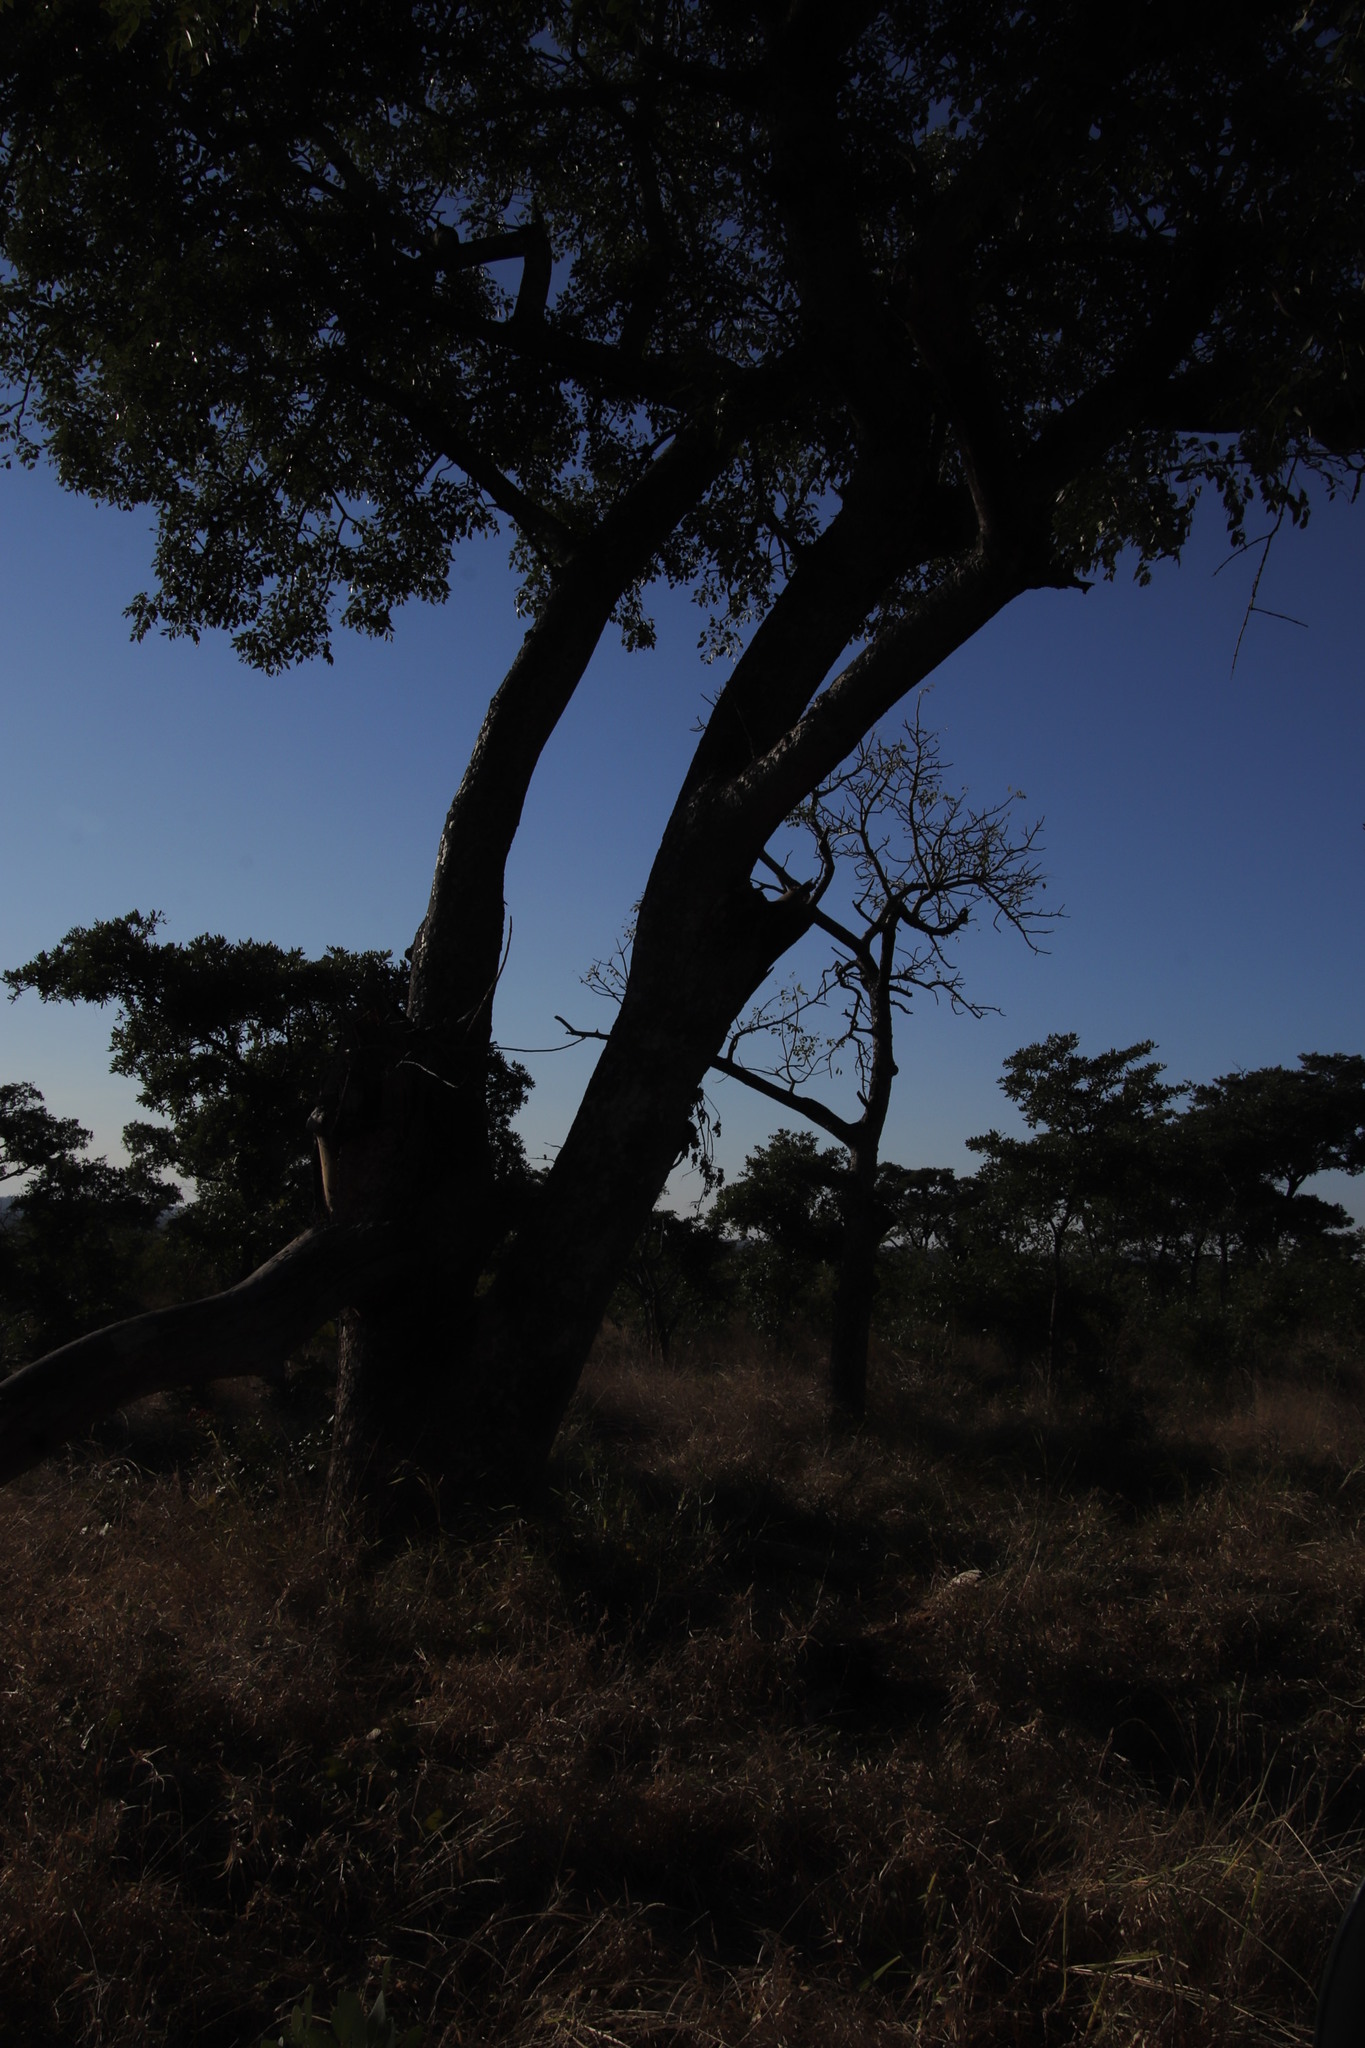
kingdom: Plantae
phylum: Tracheophyta
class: Magnoliopsida
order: Fabales
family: Fabaceae
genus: Bolusanthus
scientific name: Bolusanthus speciosus
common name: Tree wisteria
